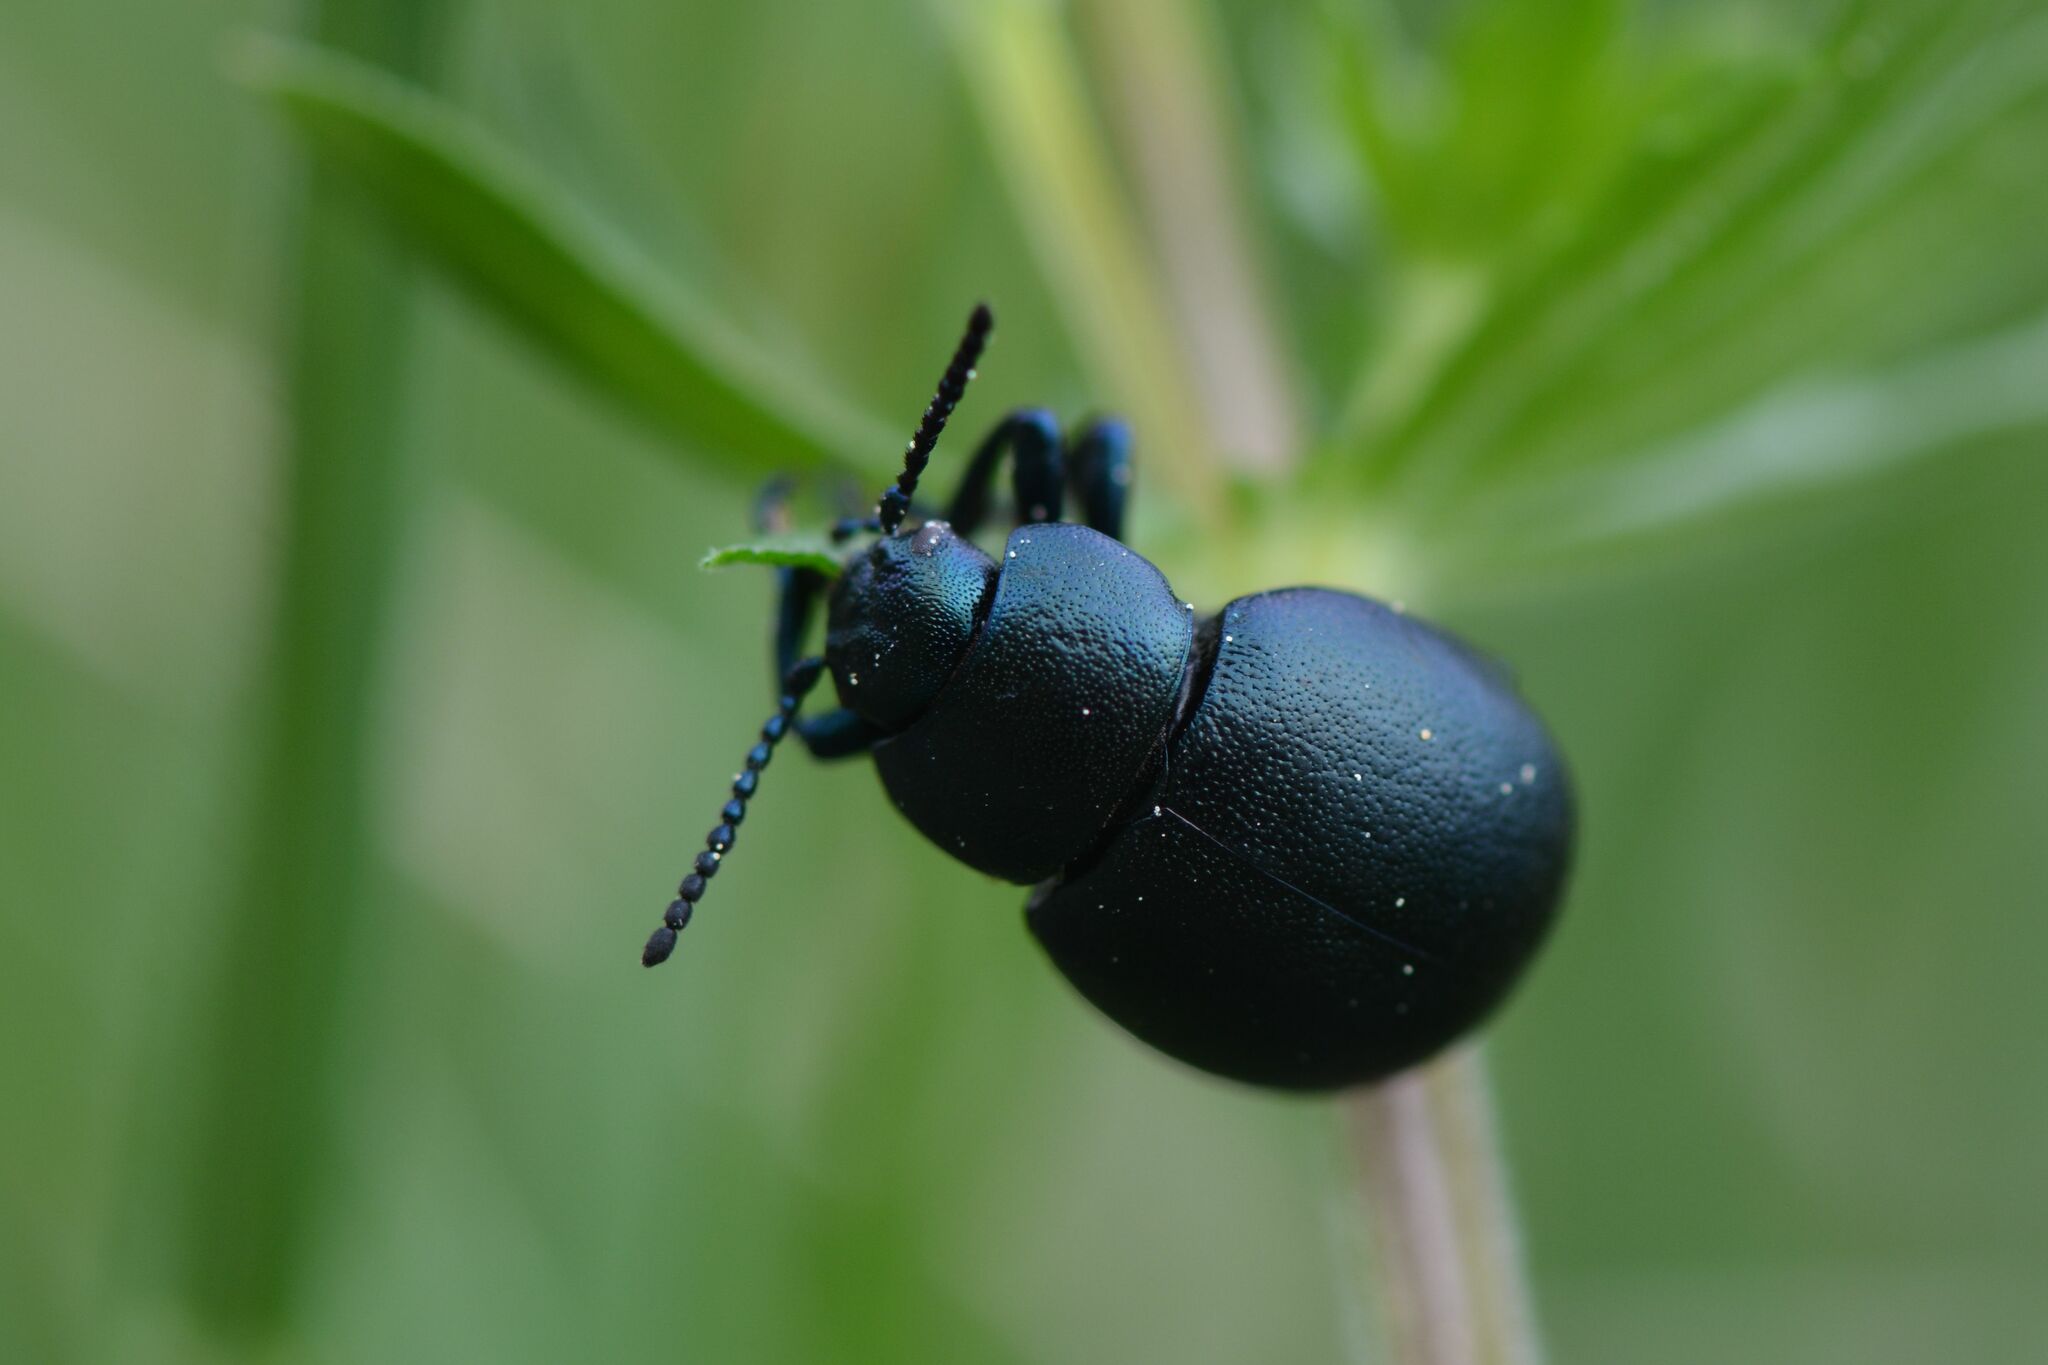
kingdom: Animalia
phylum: Arthropoda
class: Insecta
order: Coleoptera
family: Chrysomelidae
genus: Timarcha
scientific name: Timarcha goettingensis
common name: Small bloody-nosed beetle
